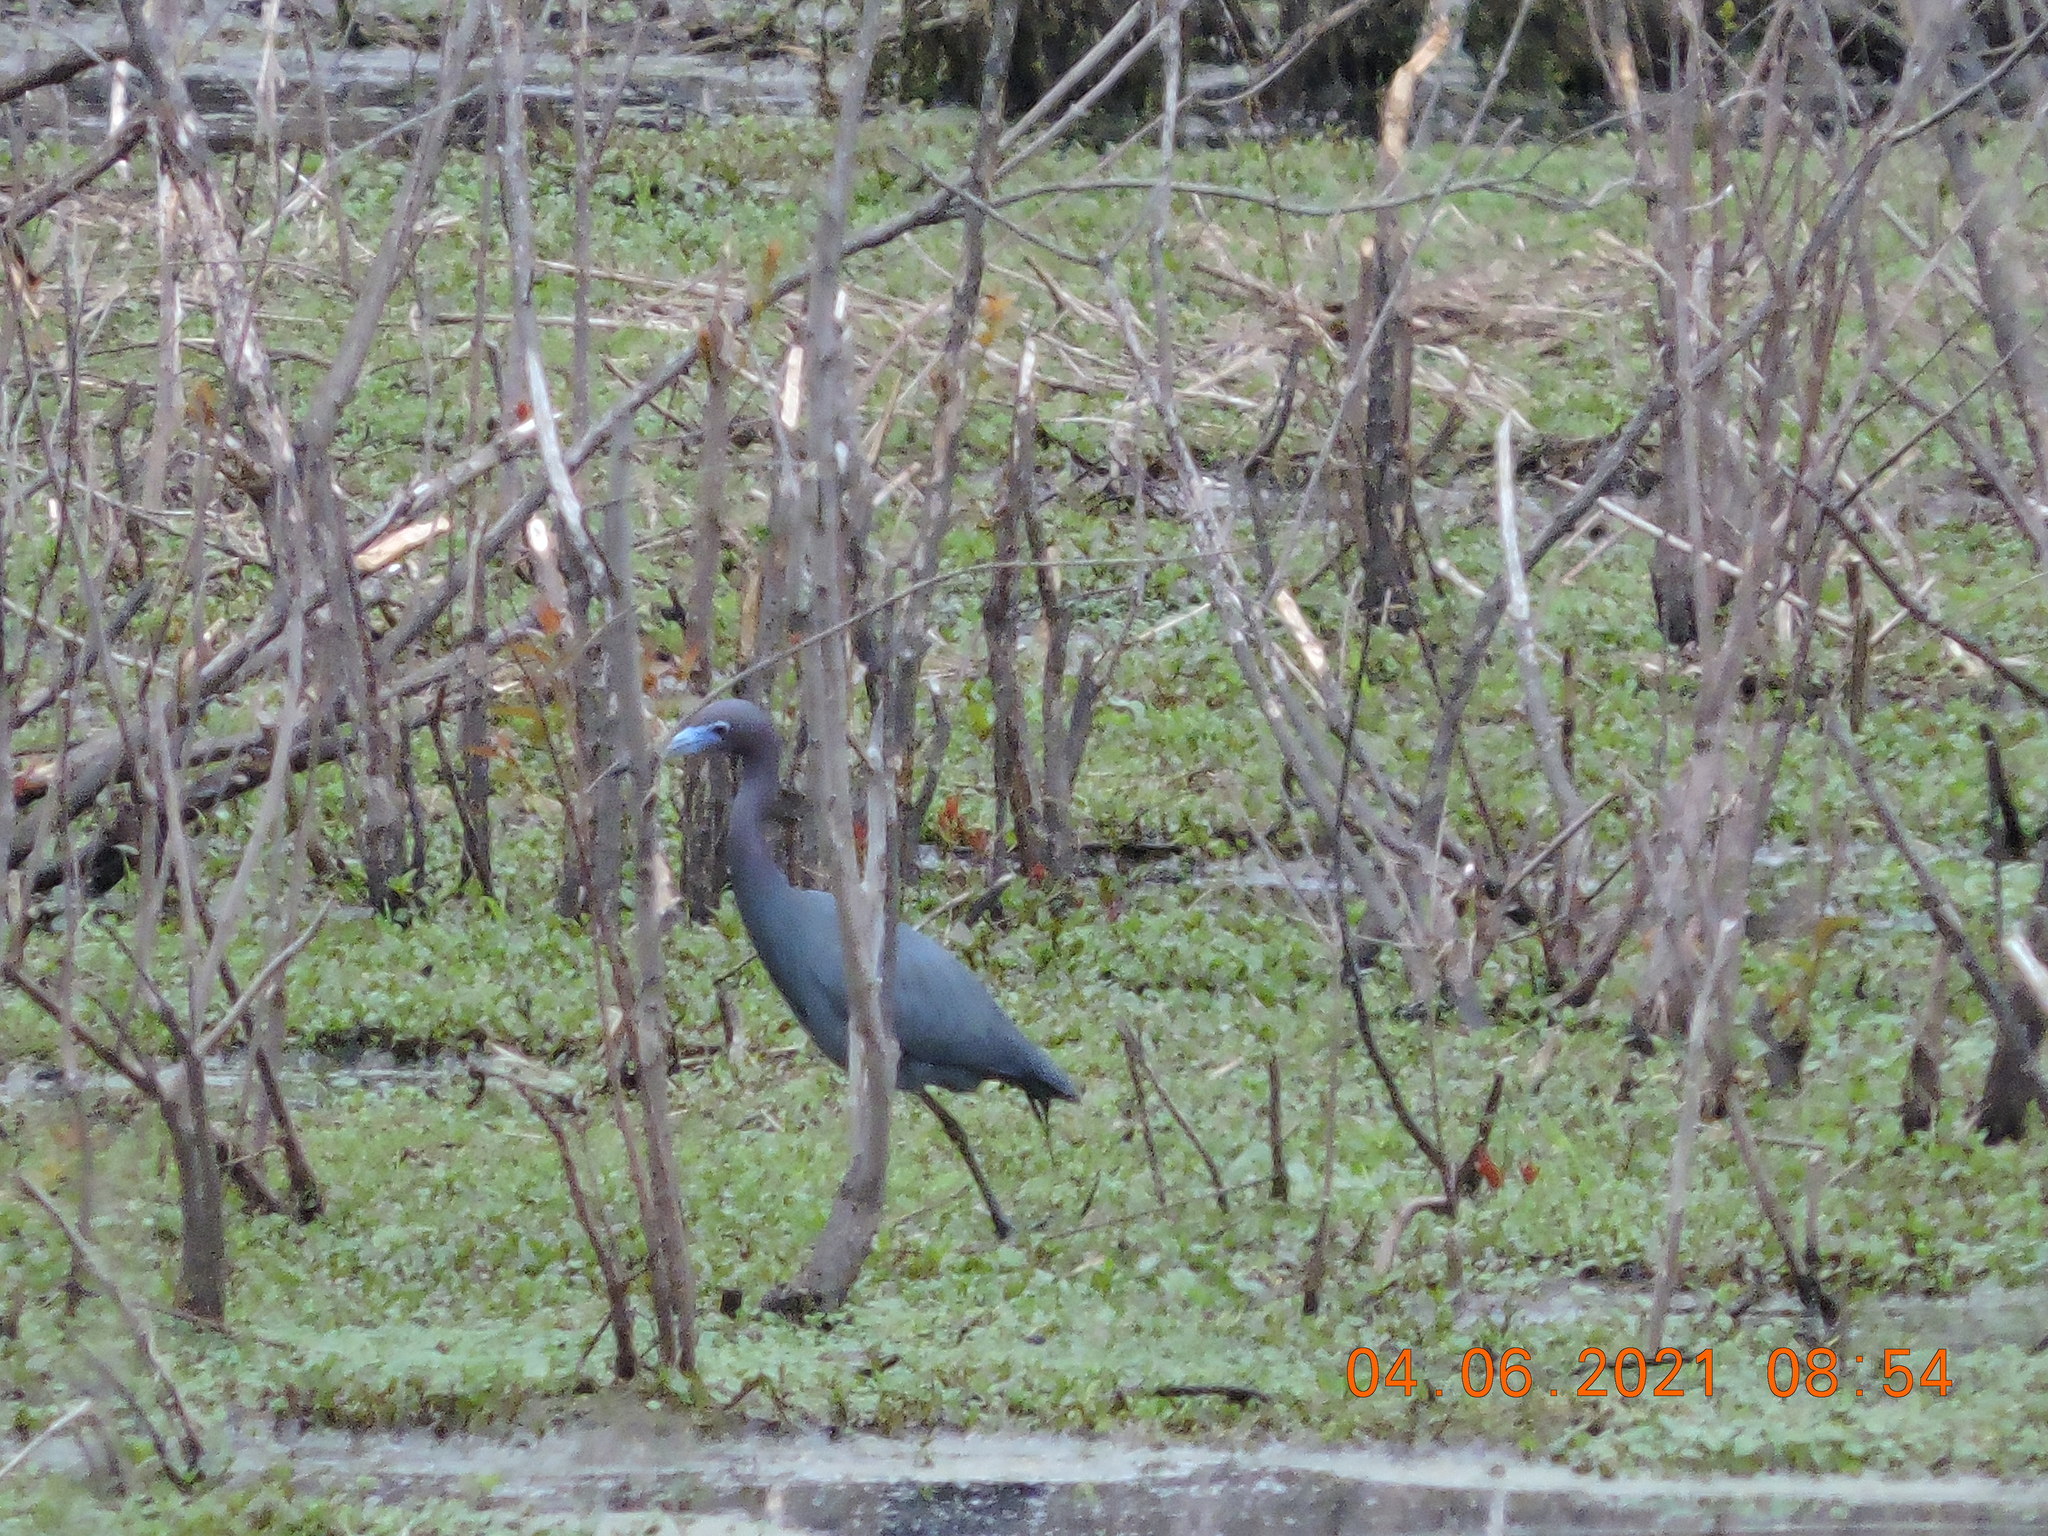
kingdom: Animalia
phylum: Chordata
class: Aves
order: Pelecaniformes
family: Ardeidae
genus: Egretta
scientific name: Egretta caerulea
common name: Little blue heron
